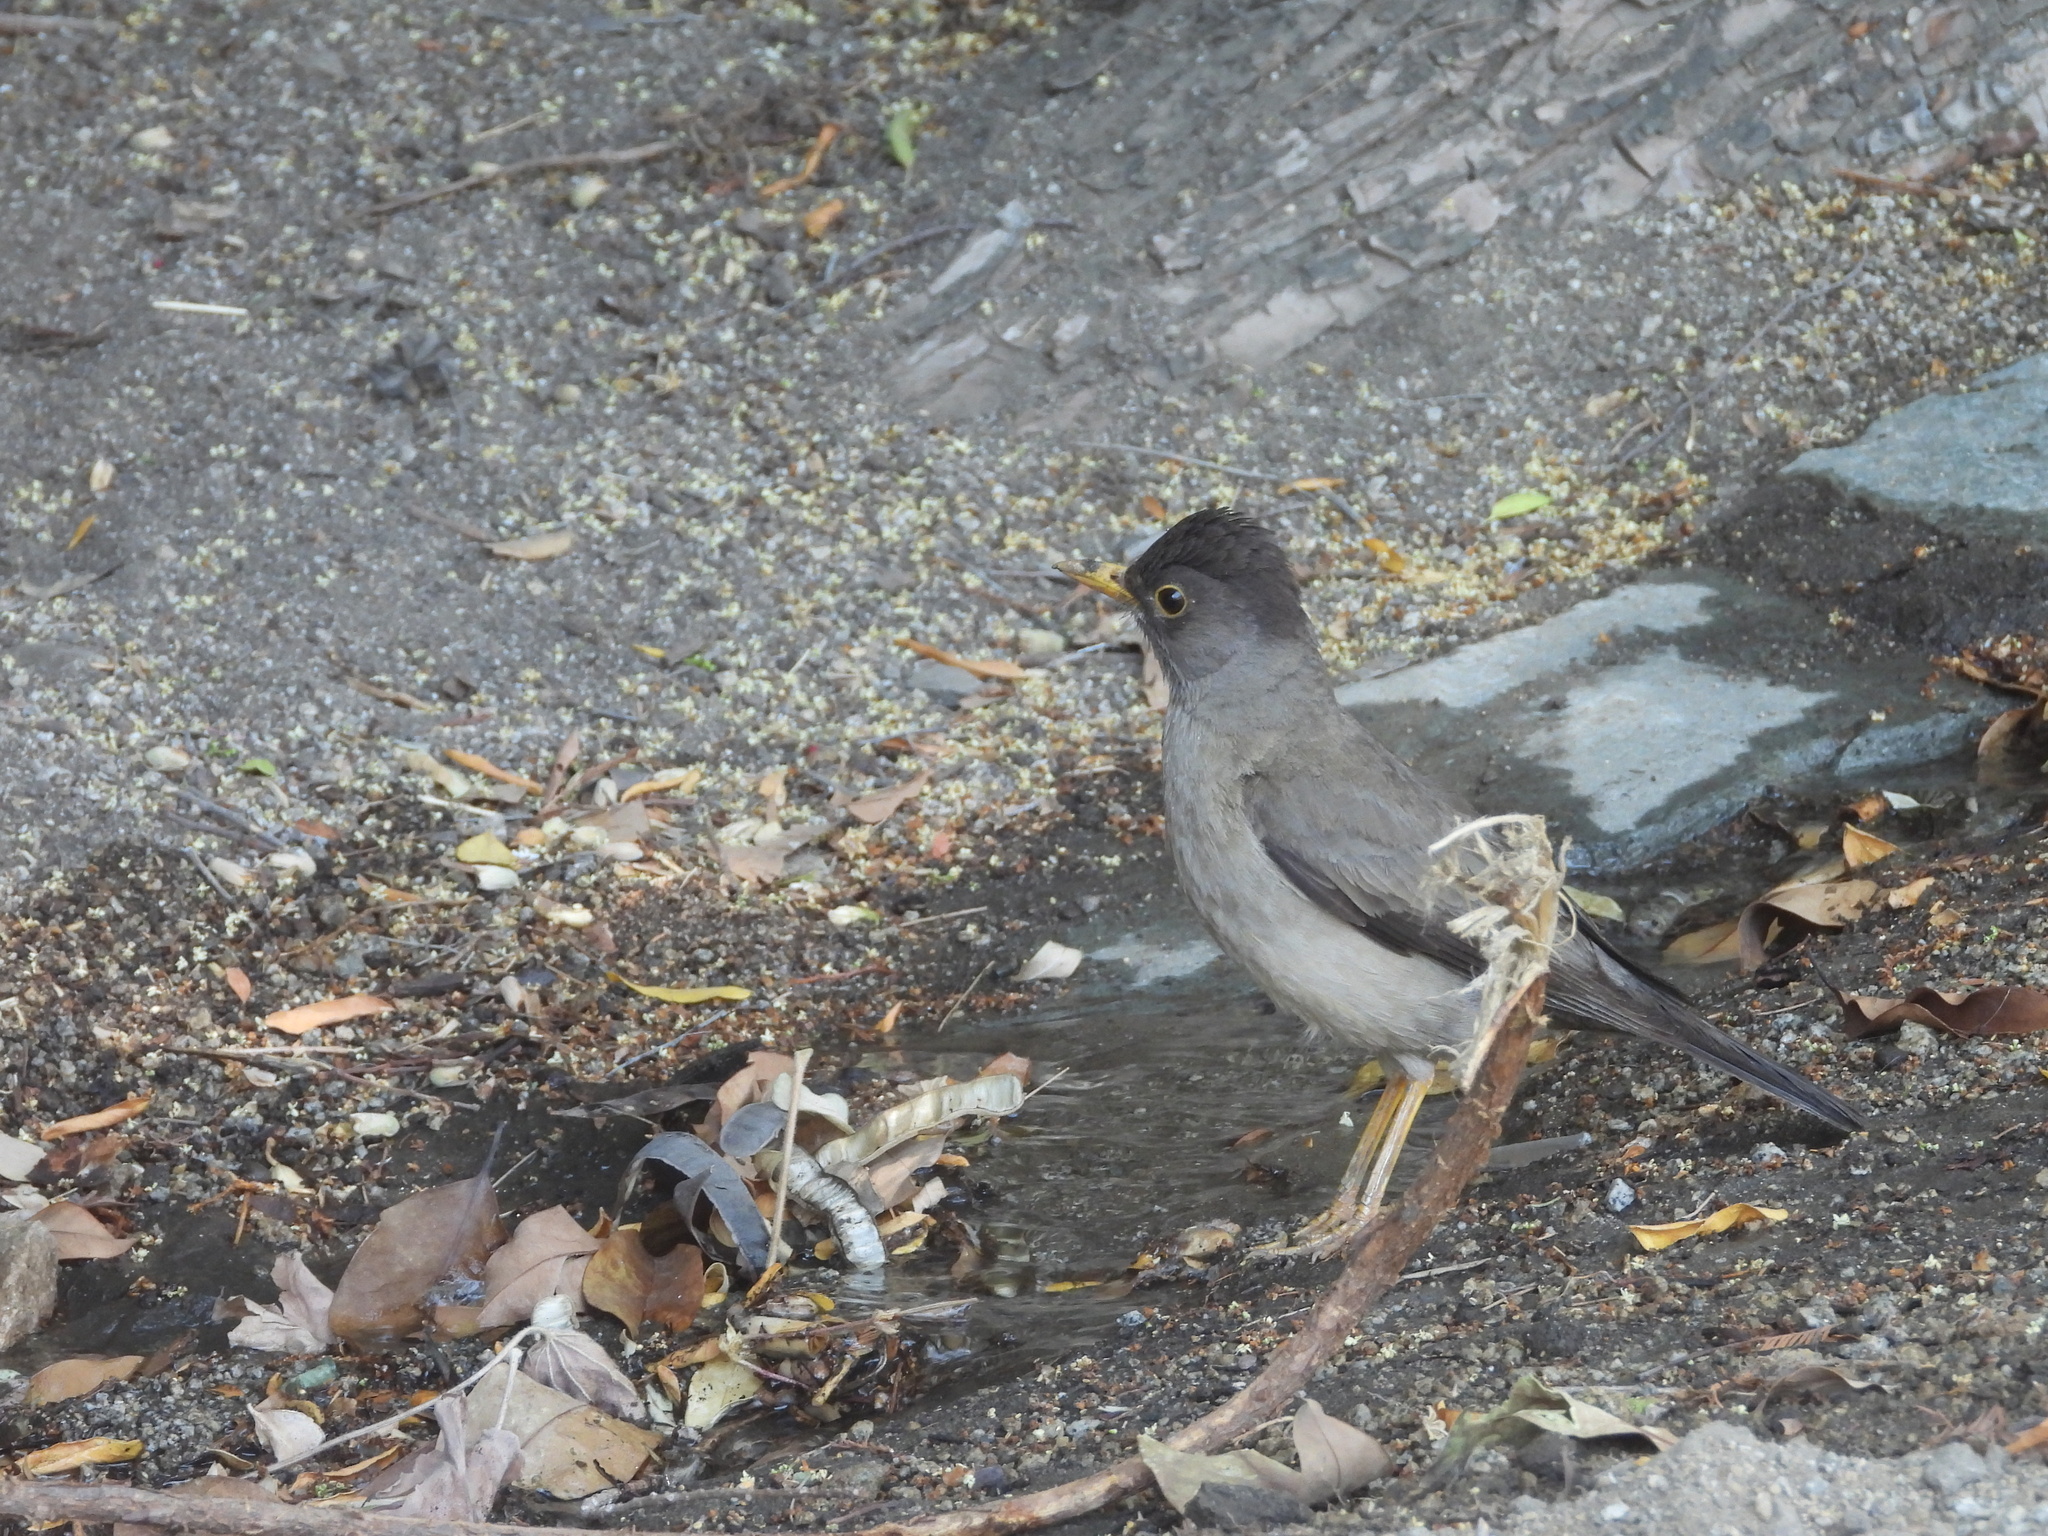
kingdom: Animalia
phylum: Chordata
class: Aves
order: Passeriformes
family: Turdidae
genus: Turdus
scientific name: Turdus falcklandii
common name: Austral thrush
